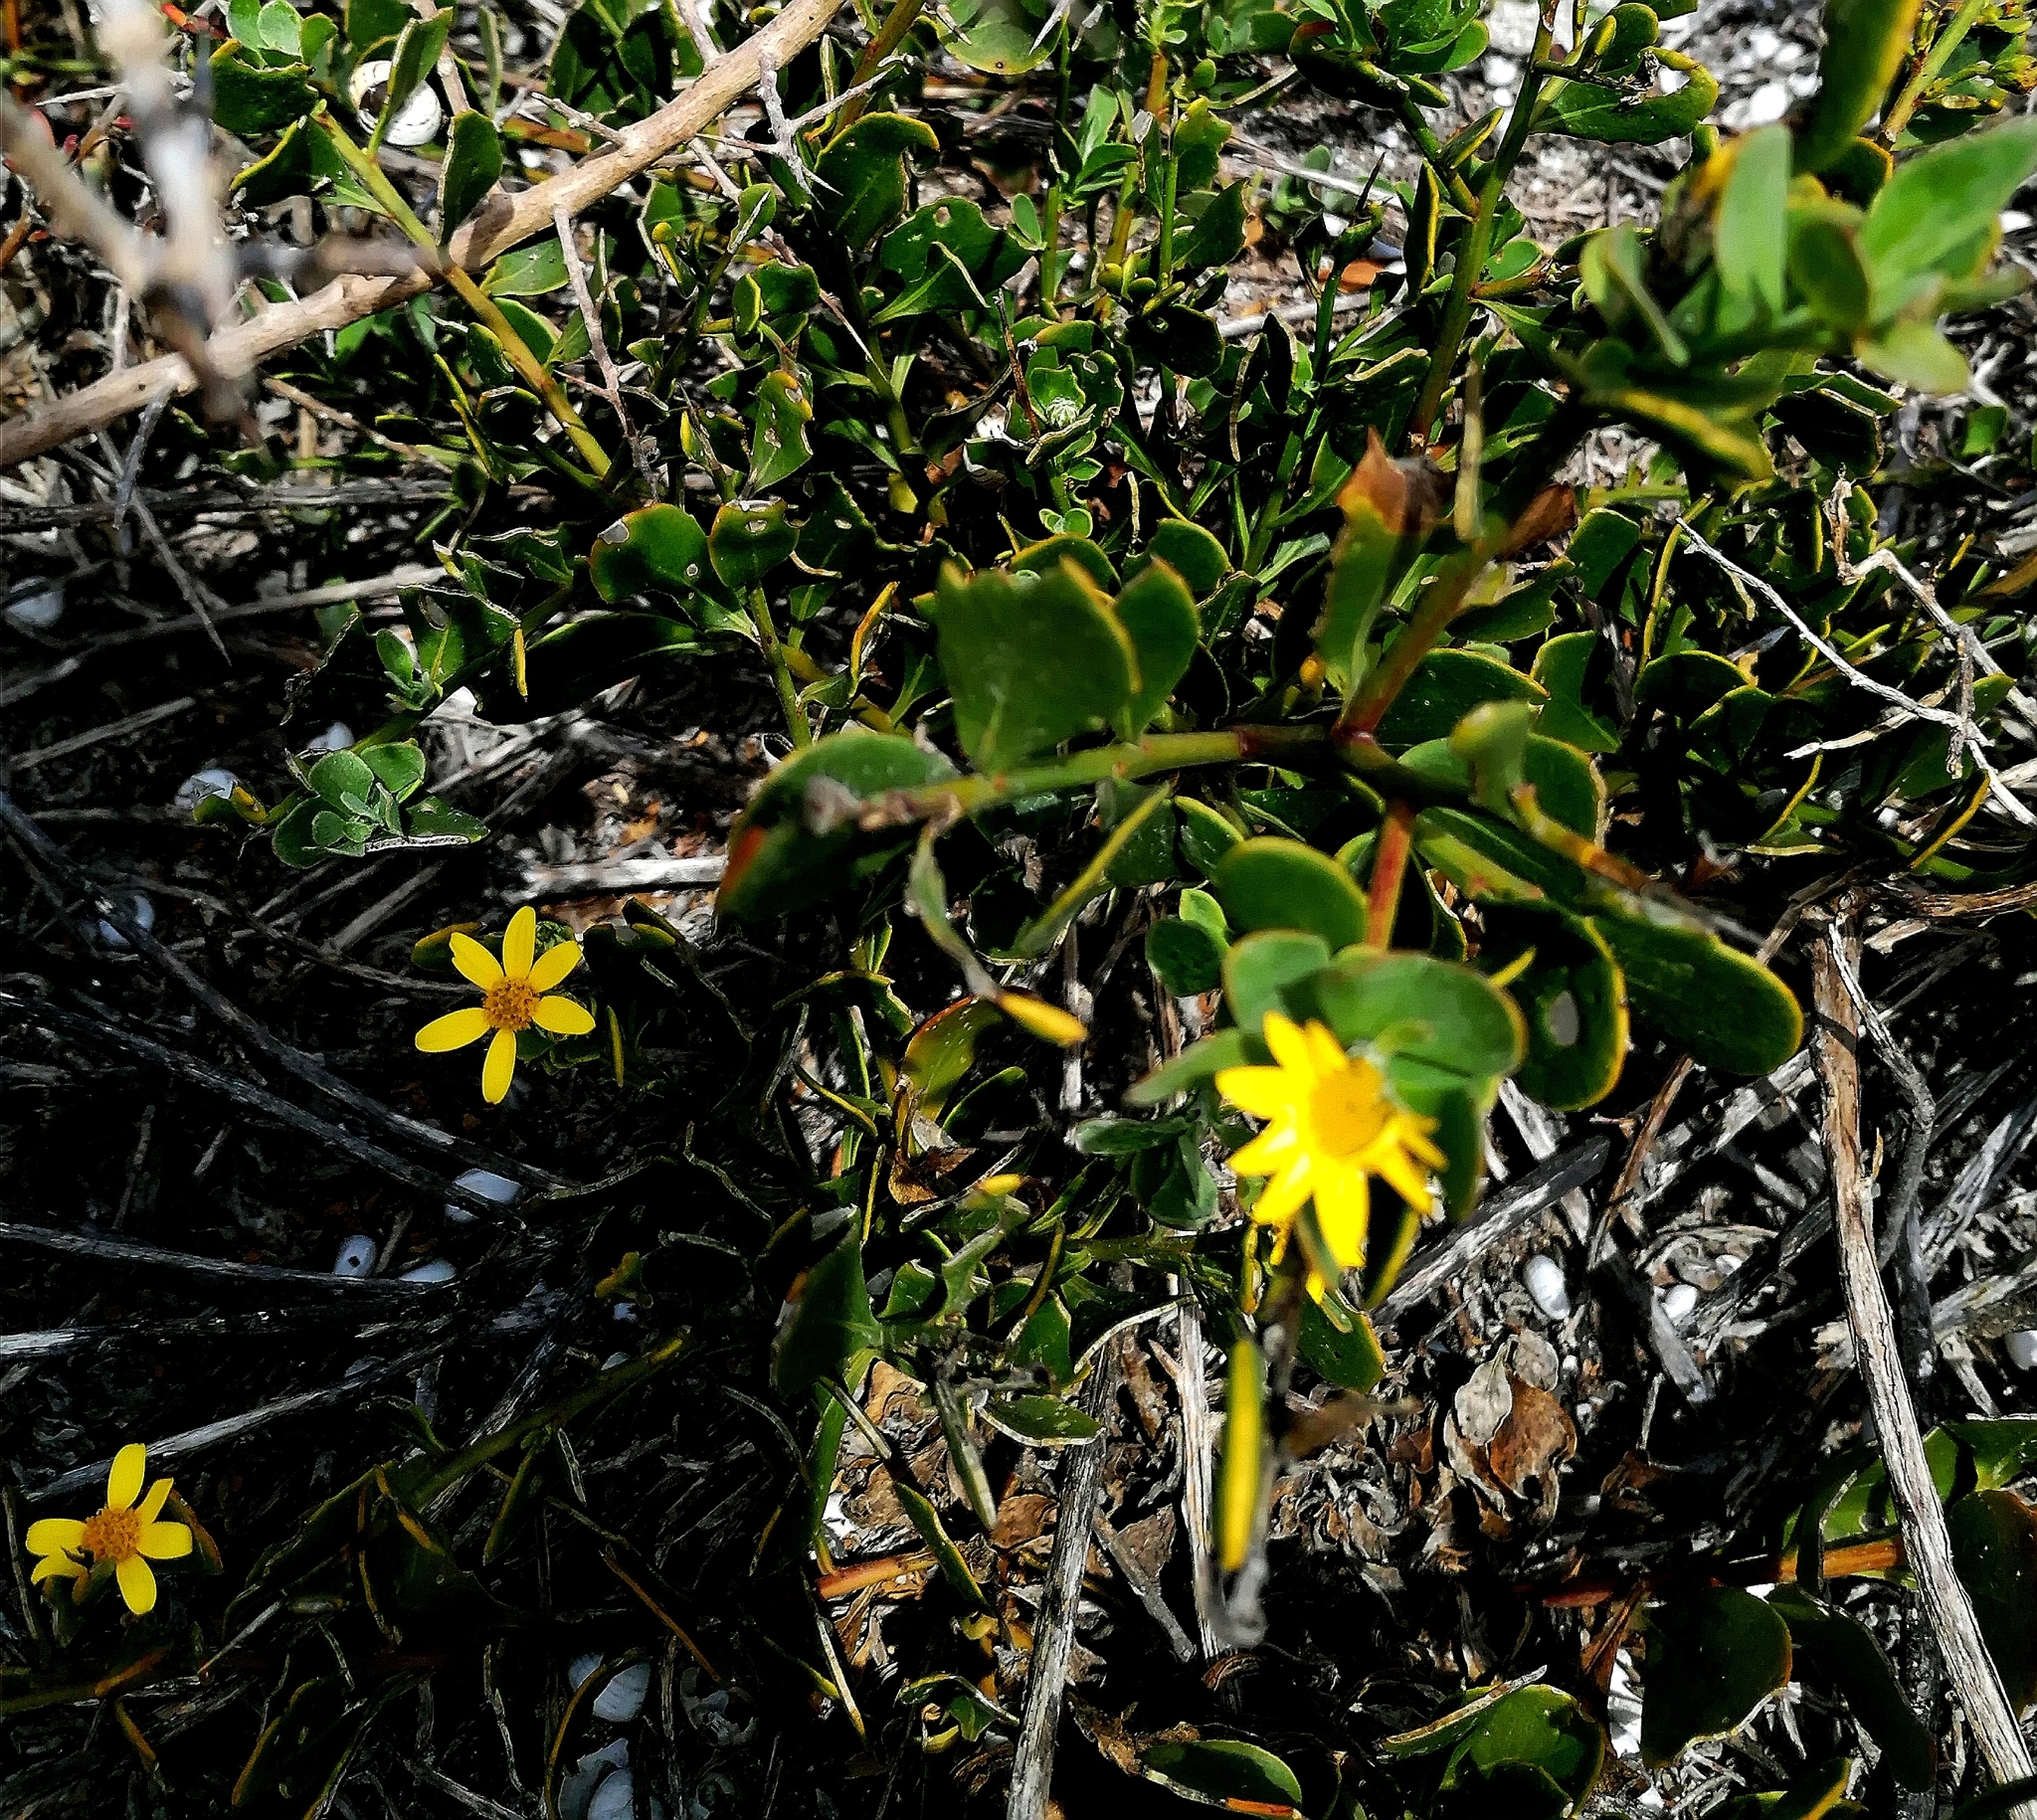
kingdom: Plantae
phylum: Tracheophyta
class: Magnoliopsida
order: Asterales
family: Asteraceae
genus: Osteospermum
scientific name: Osteospermum moniliferum
